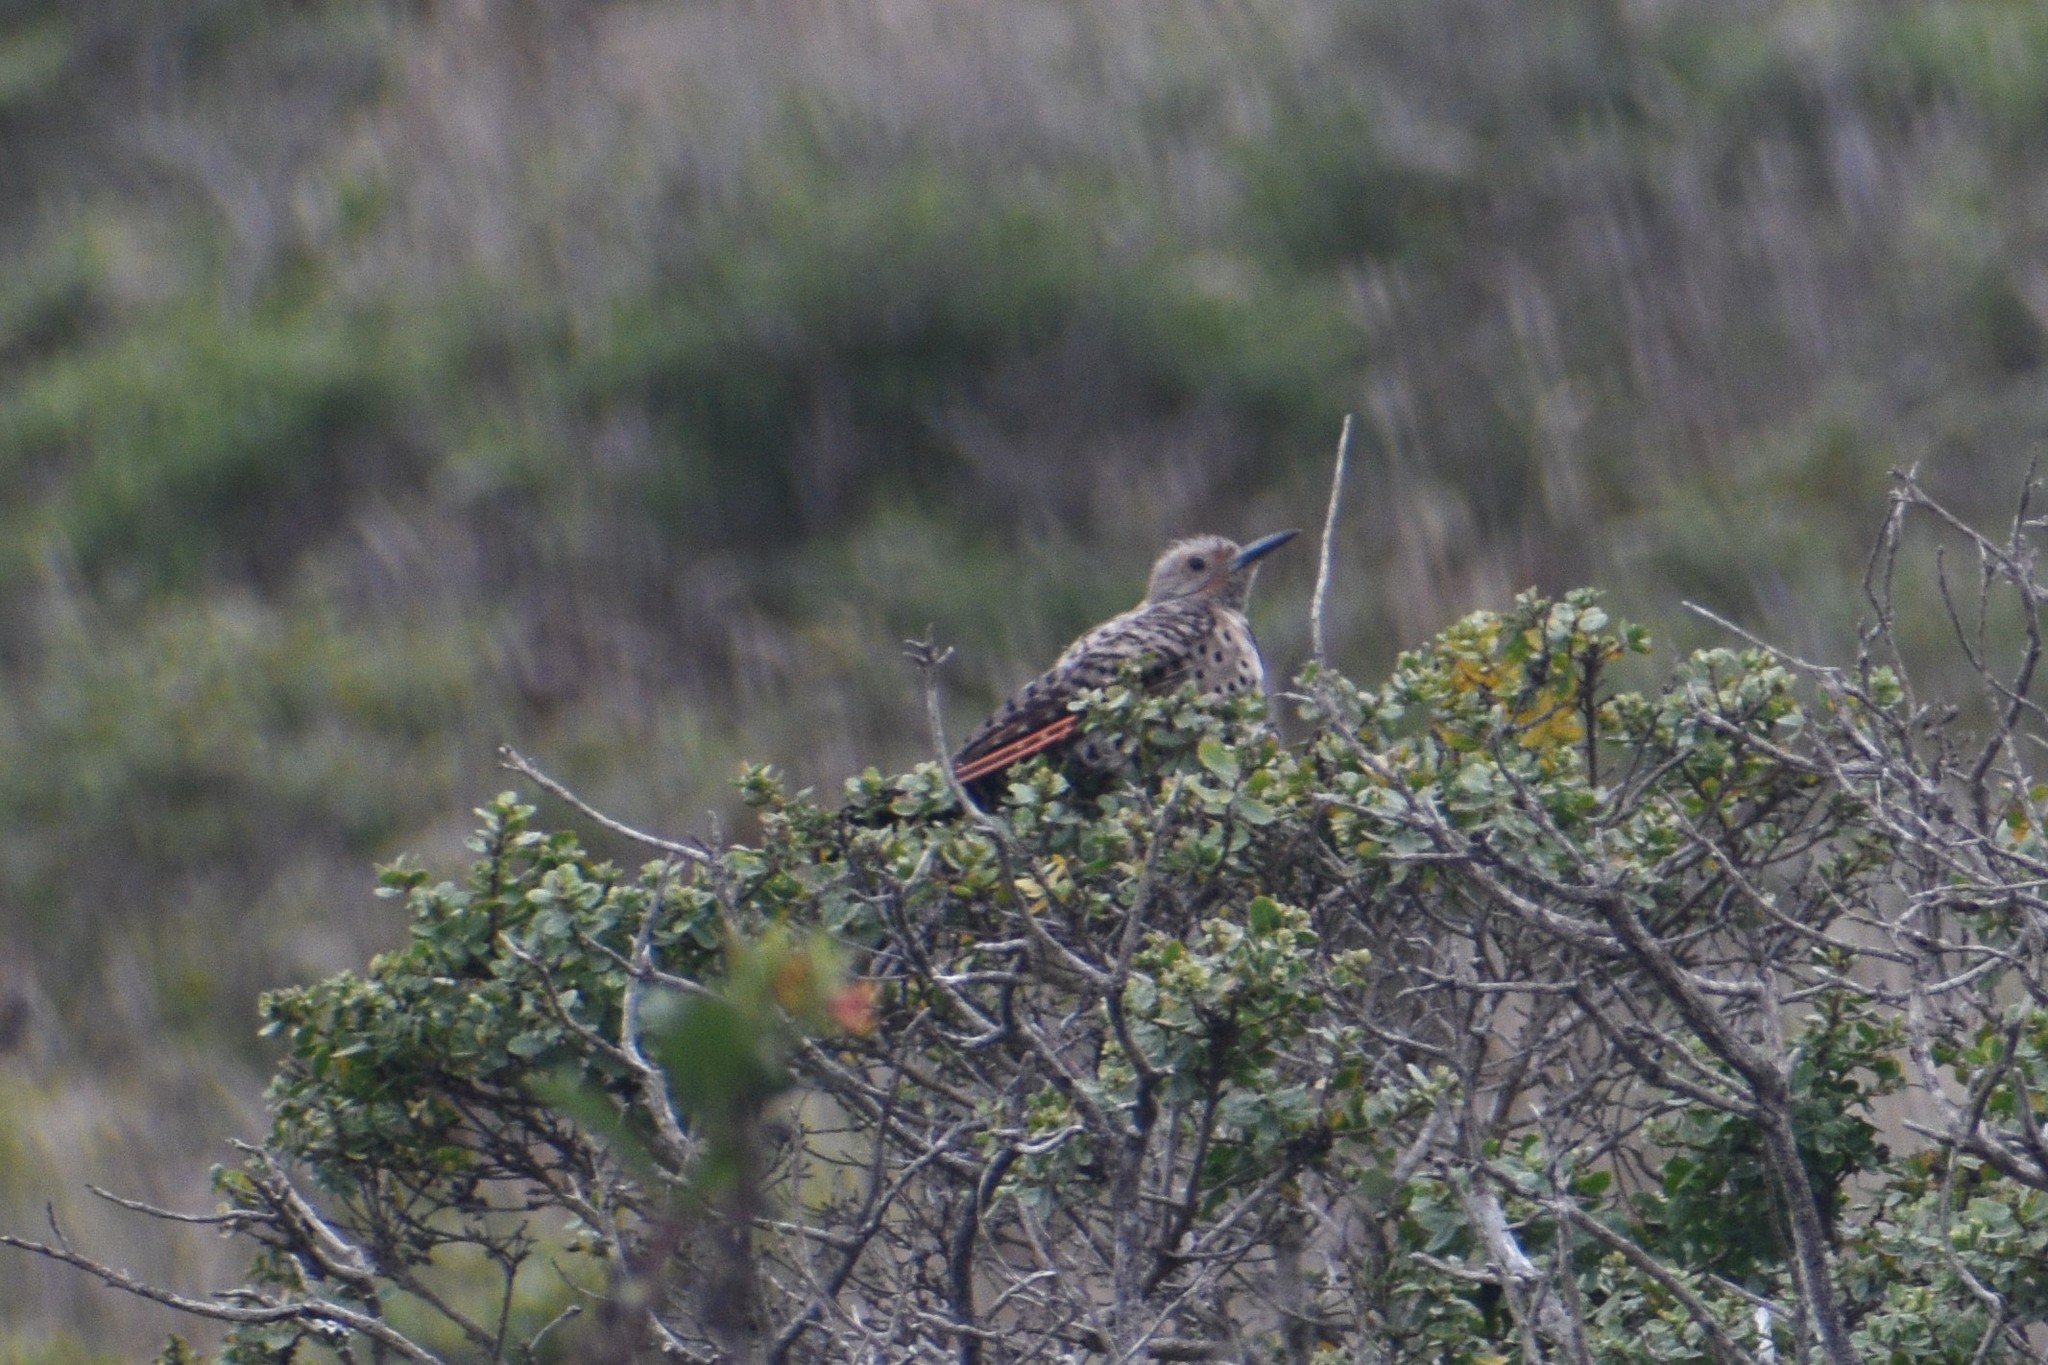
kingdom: Animalia
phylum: Chordata
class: Aves
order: Piciformes
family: Picidae
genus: Colaptes
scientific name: Colaptes auratus
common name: Northern flicker
